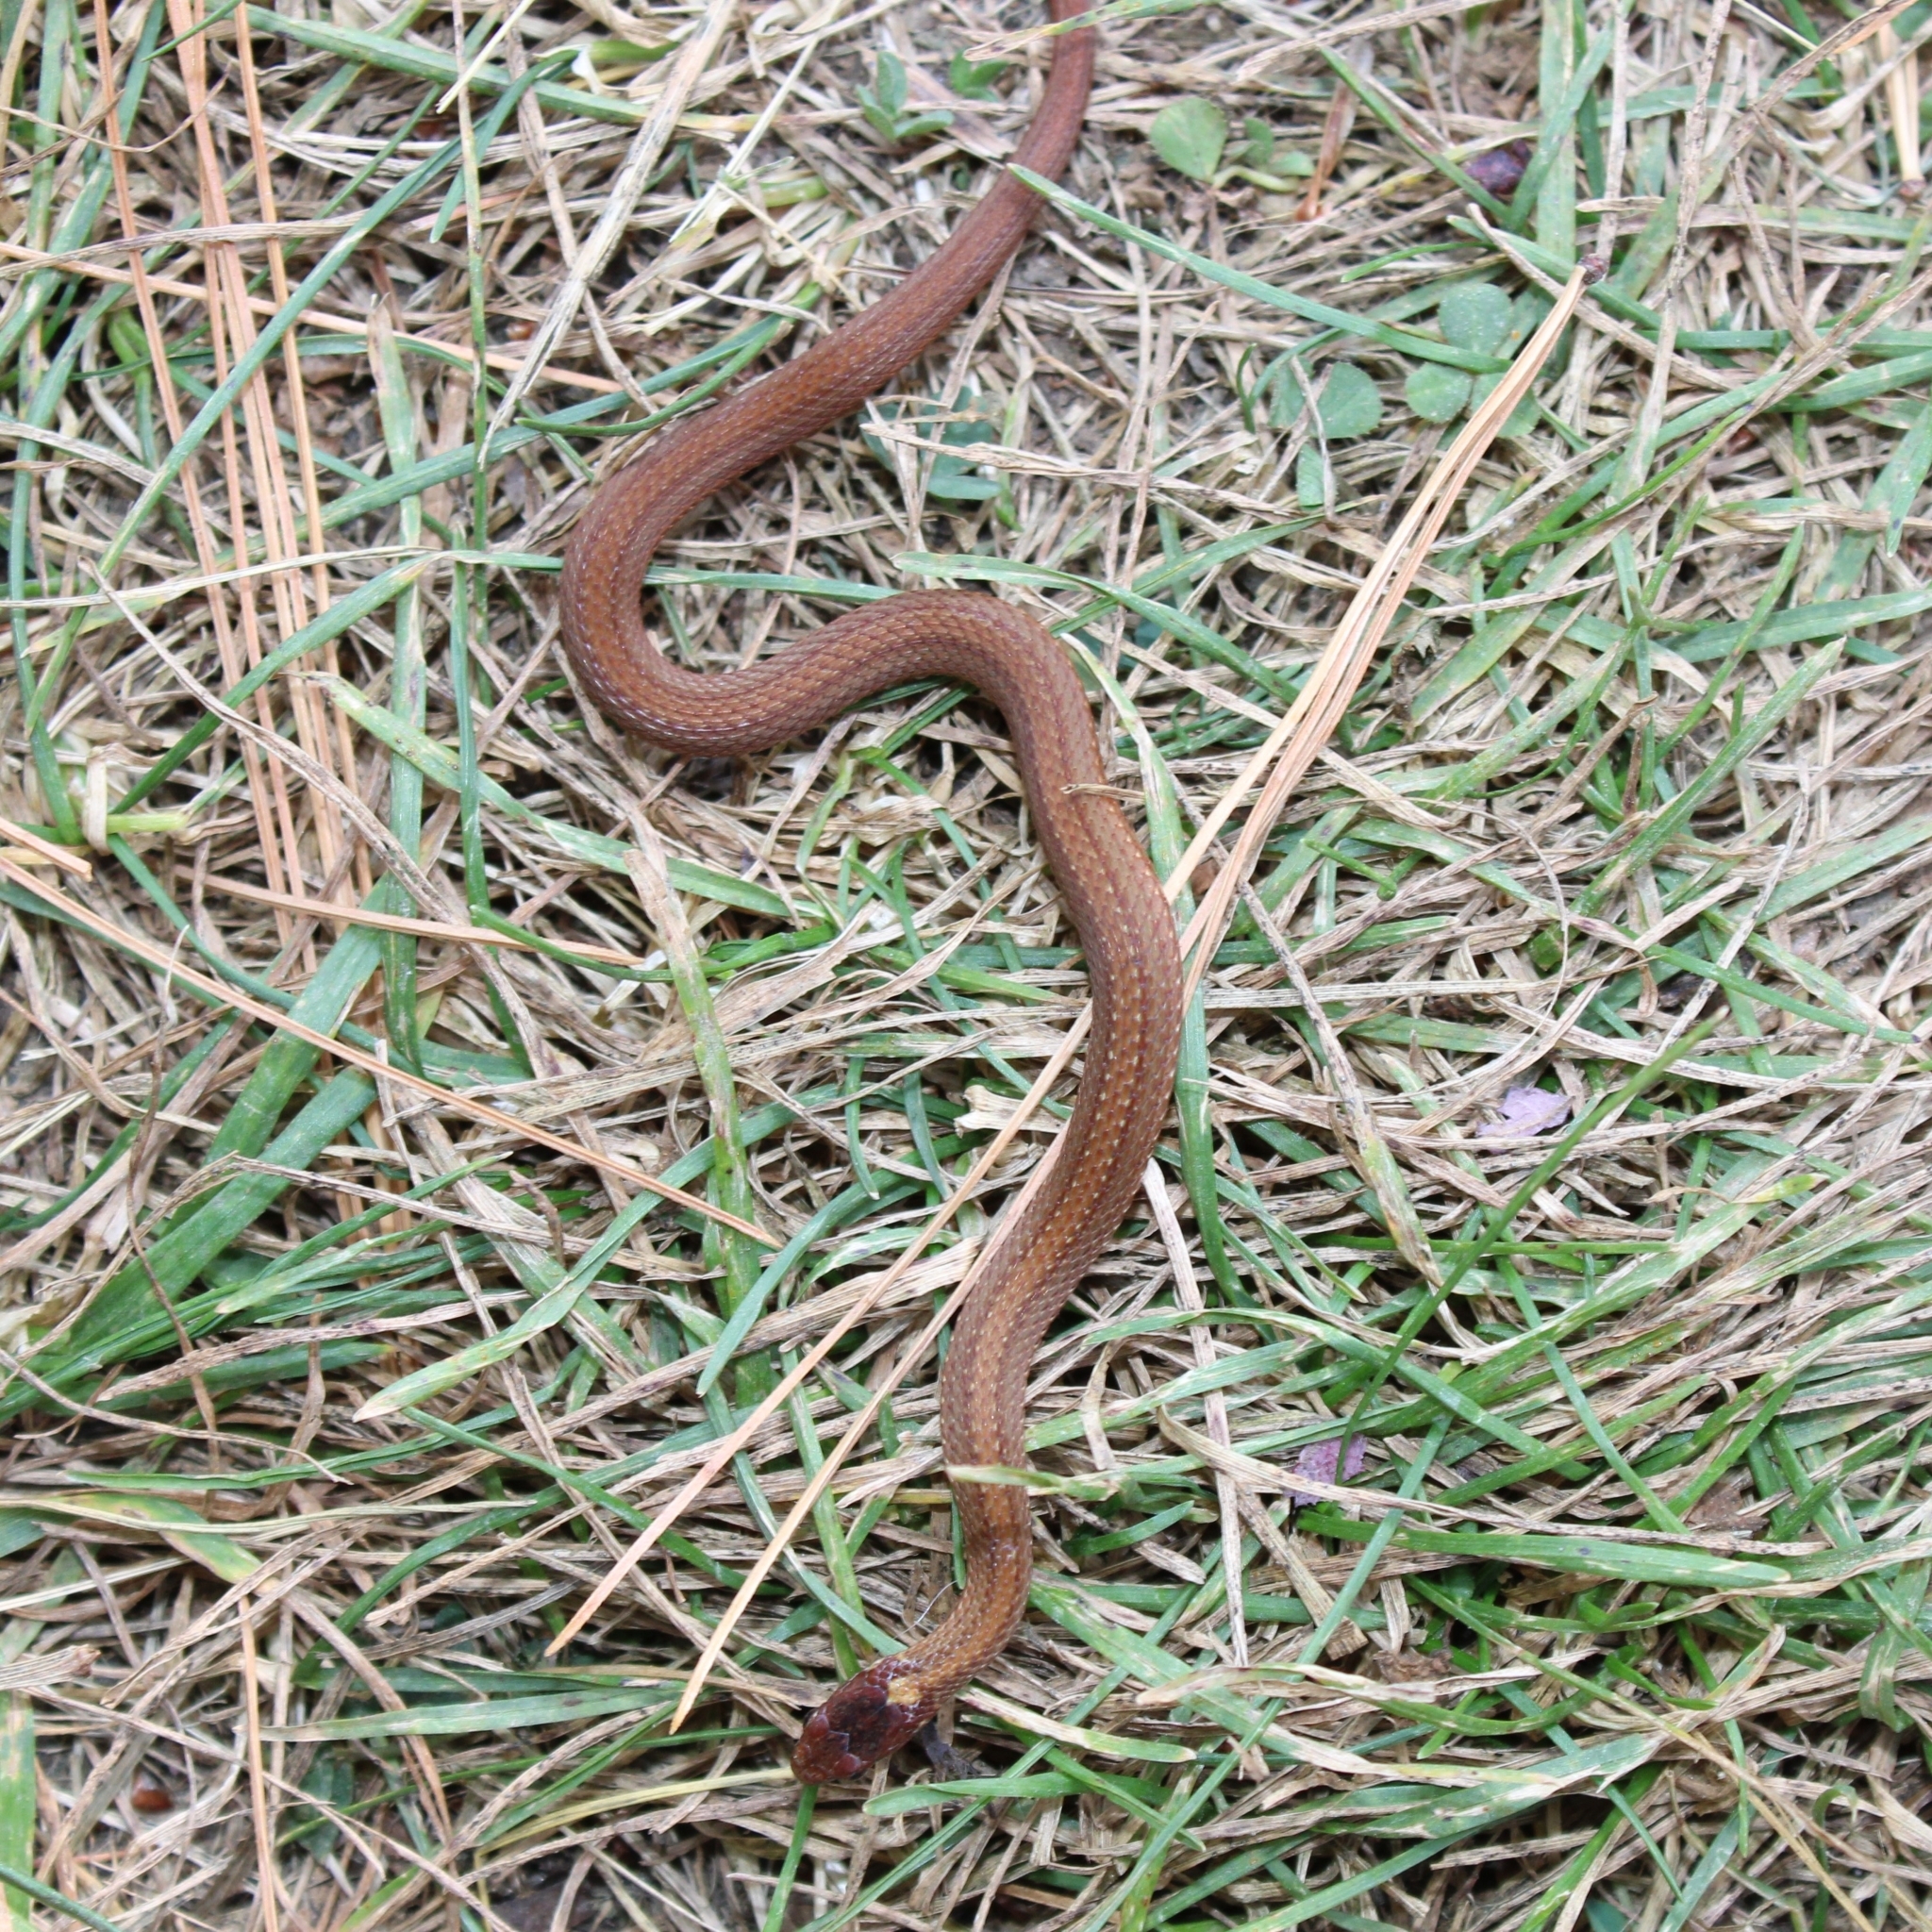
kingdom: Animalia
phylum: Chordata
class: Squamata
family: Colubridae
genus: Storeria
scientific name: Storeria occipitomaculata
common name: Redbelly snake
